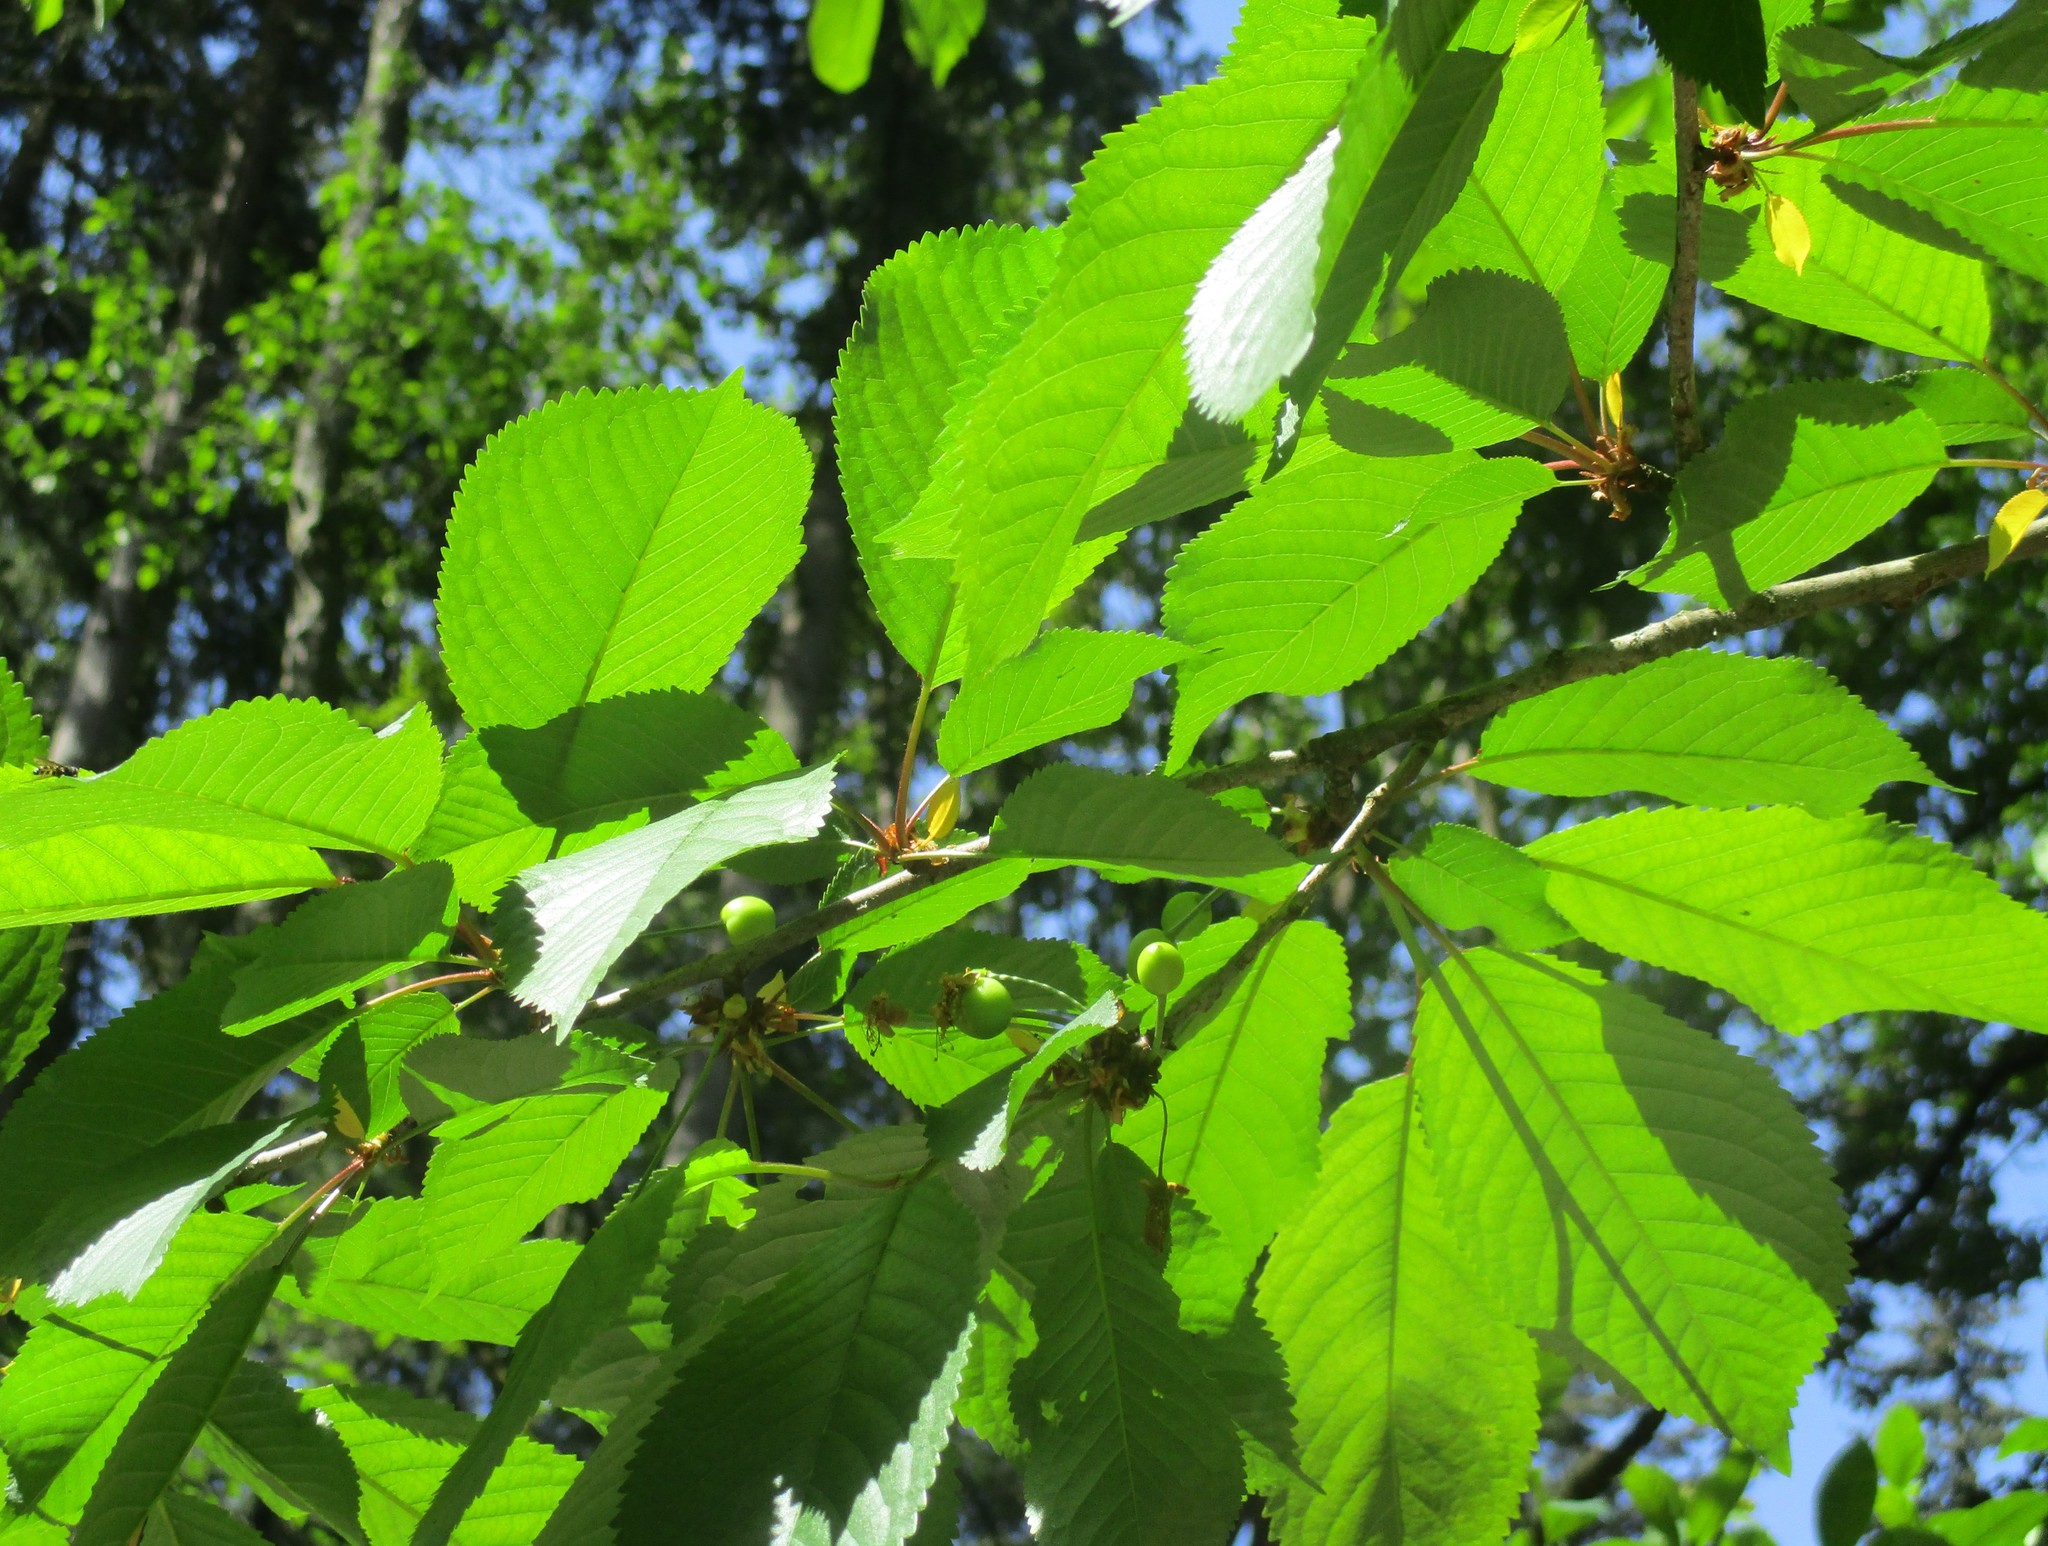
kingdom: Plantae
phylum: Tracheophyta
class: Magnoliopsida
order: Rosales
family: Rosaceae
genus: Prunus
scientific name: Prunus emarginata
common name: Bitter cherry
